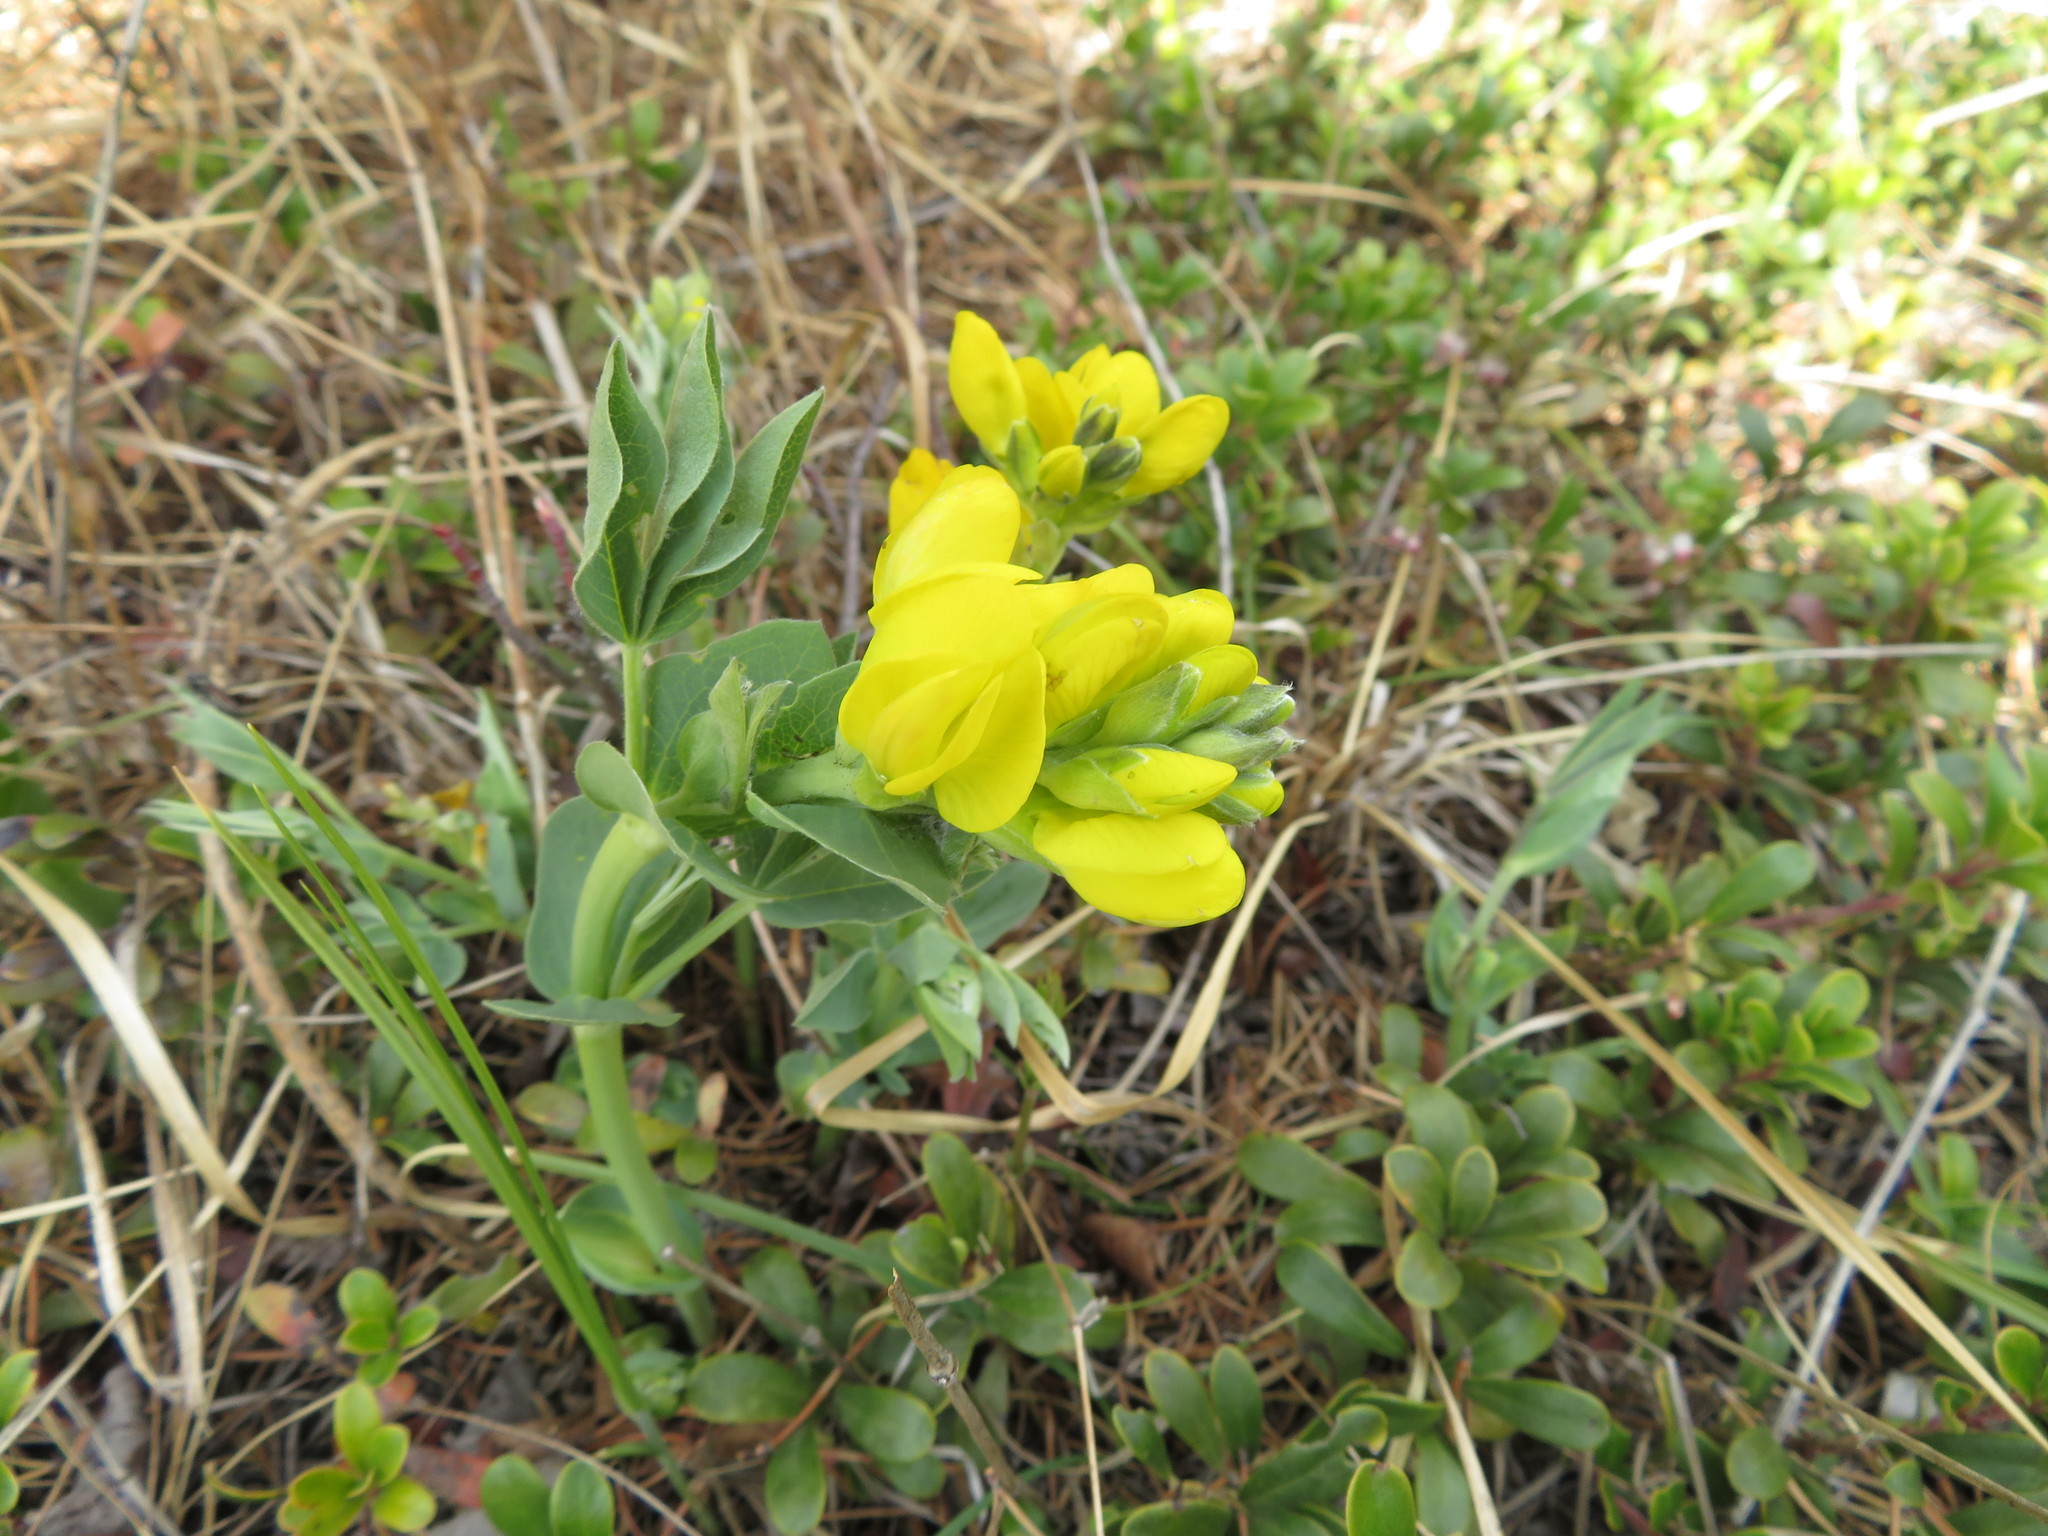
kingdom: Plantae
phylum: Tracheophyta
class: Magnoliopsida
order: Fabales
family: Fabaceae
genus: Thermopsis
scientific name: Thermopsis rhombifolia
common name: Circle-pod-pea
